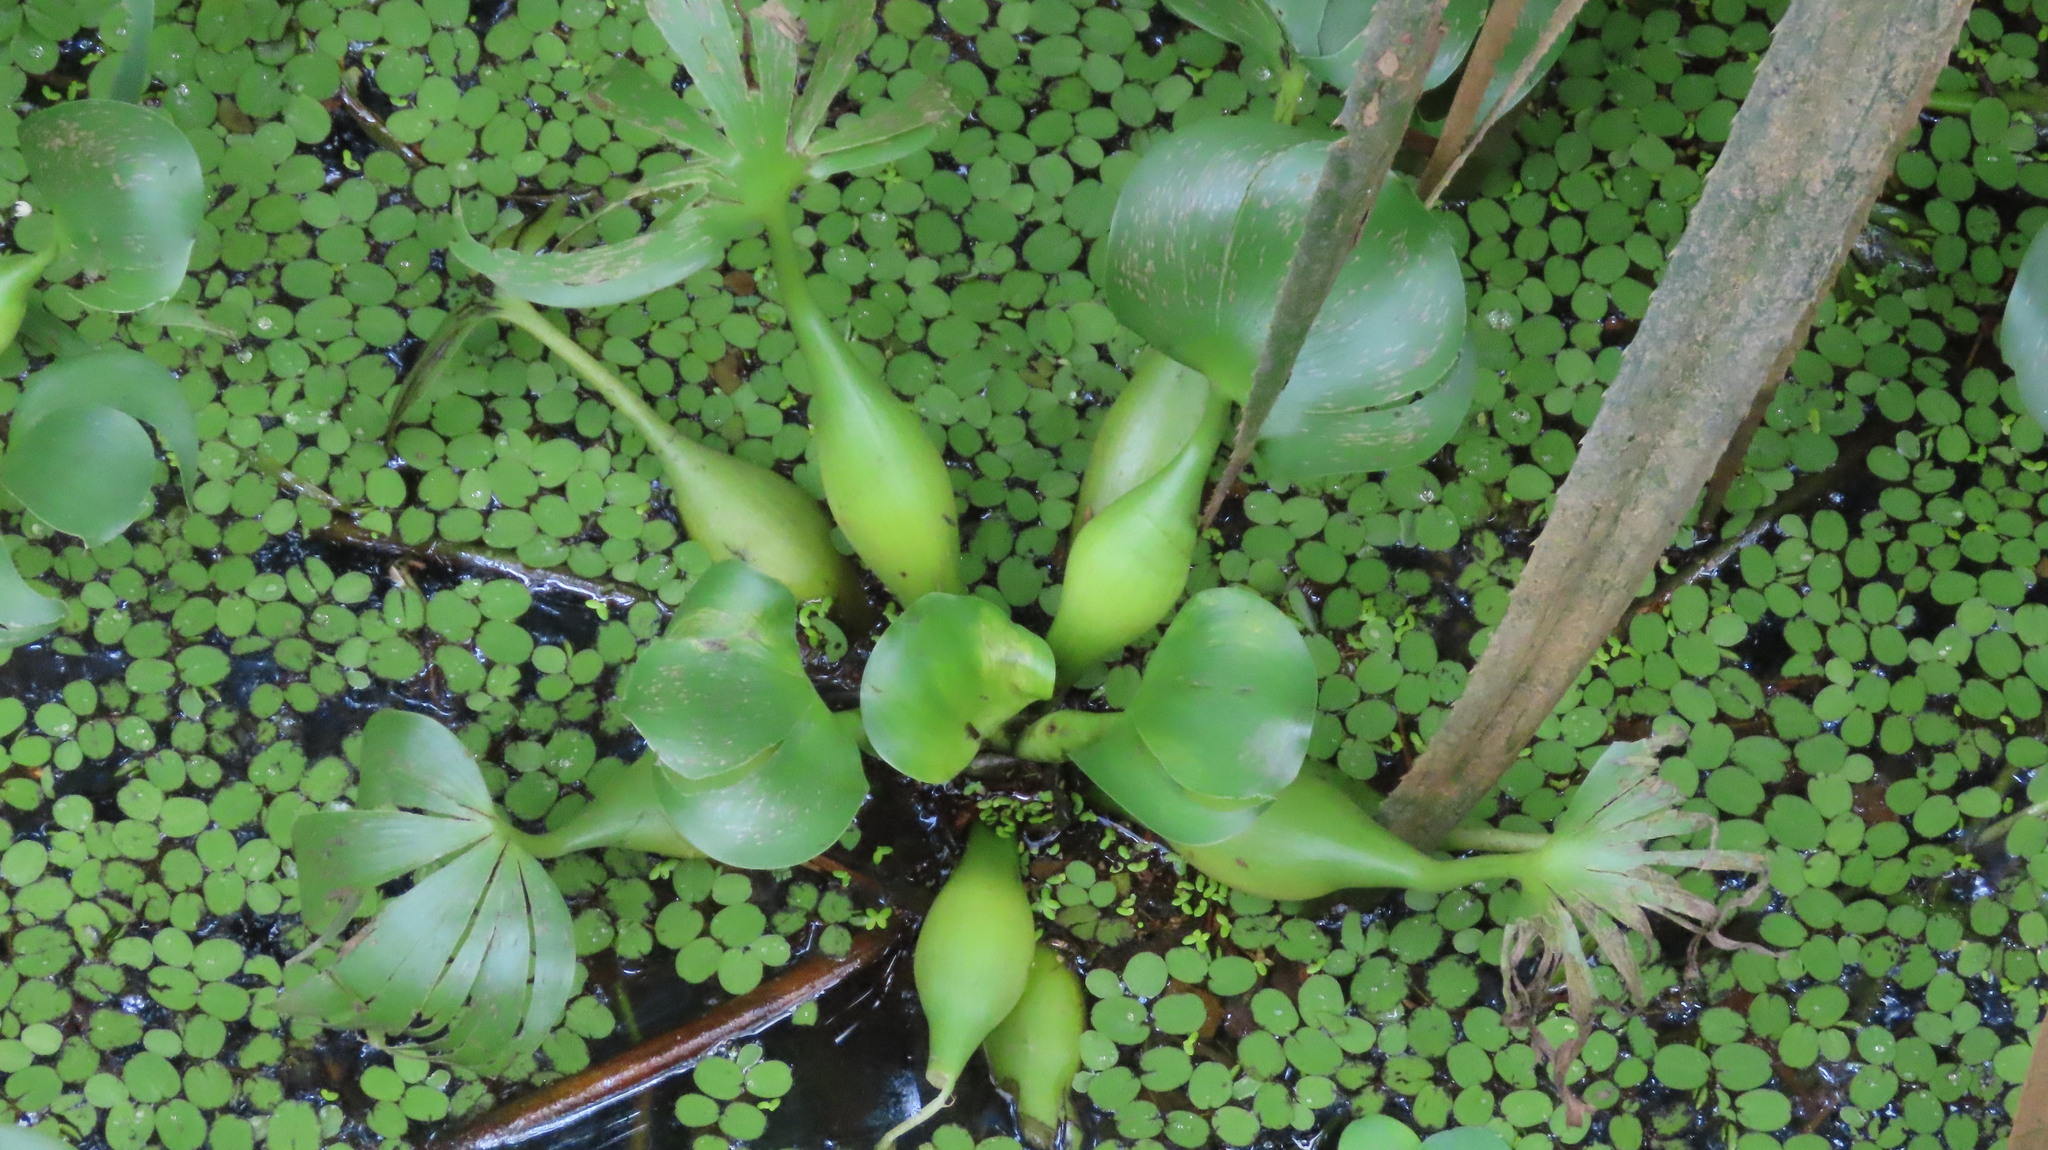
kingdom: Plantae
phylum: Tracheophyta
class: Liliopsida
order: Commelinales
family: Pontederiaceae
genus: Pontederia
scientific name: Pontederia crassipes
